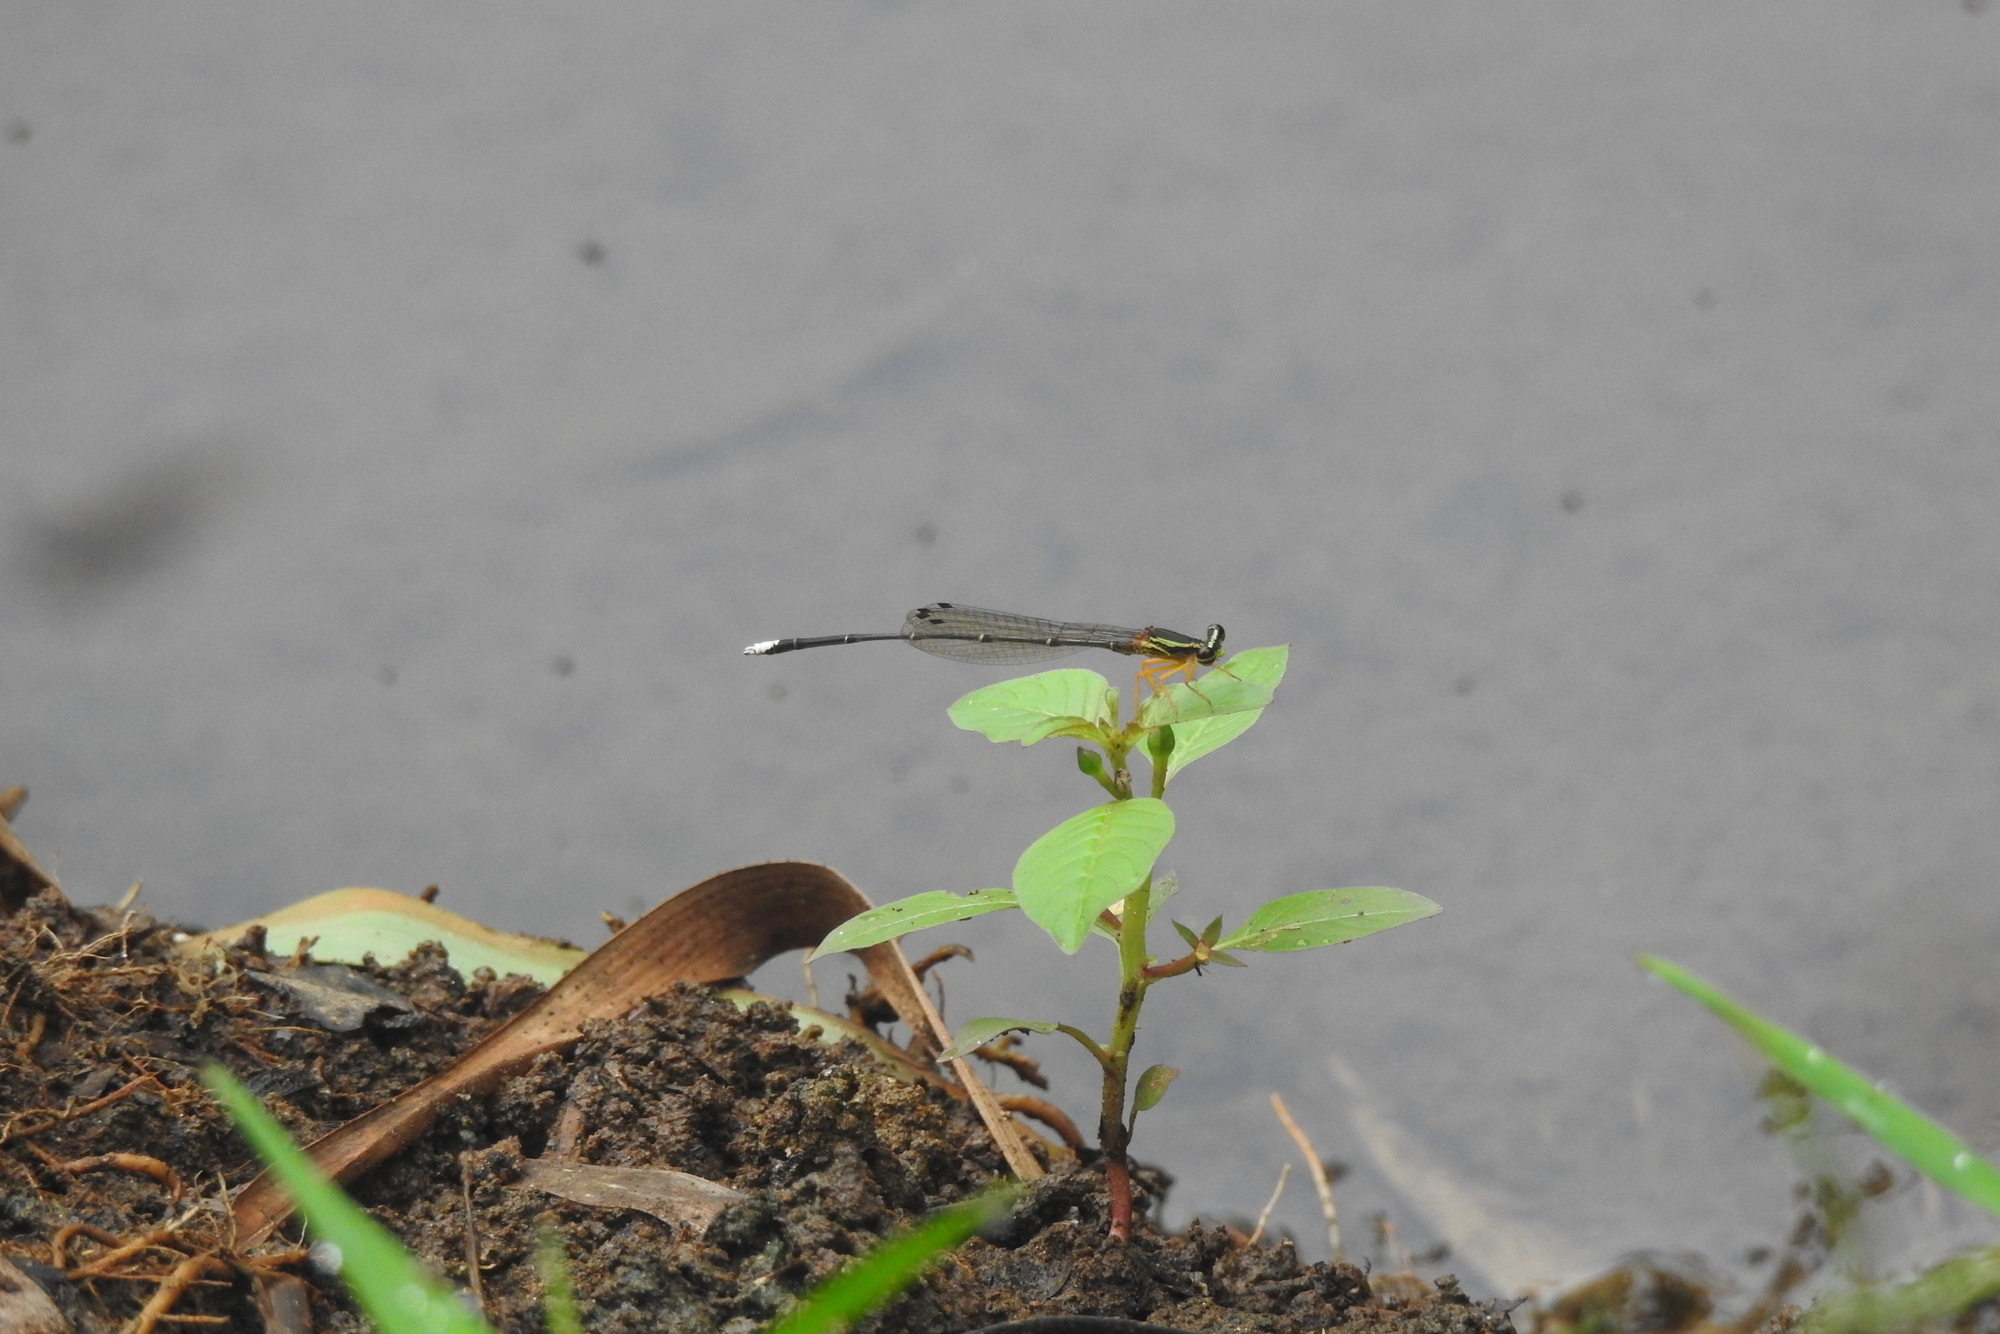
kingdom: Animalia
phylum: Arthropoda
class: Insecta
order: Odonata
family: Platycnemididae
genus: Copera
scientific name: Copera marginipes
